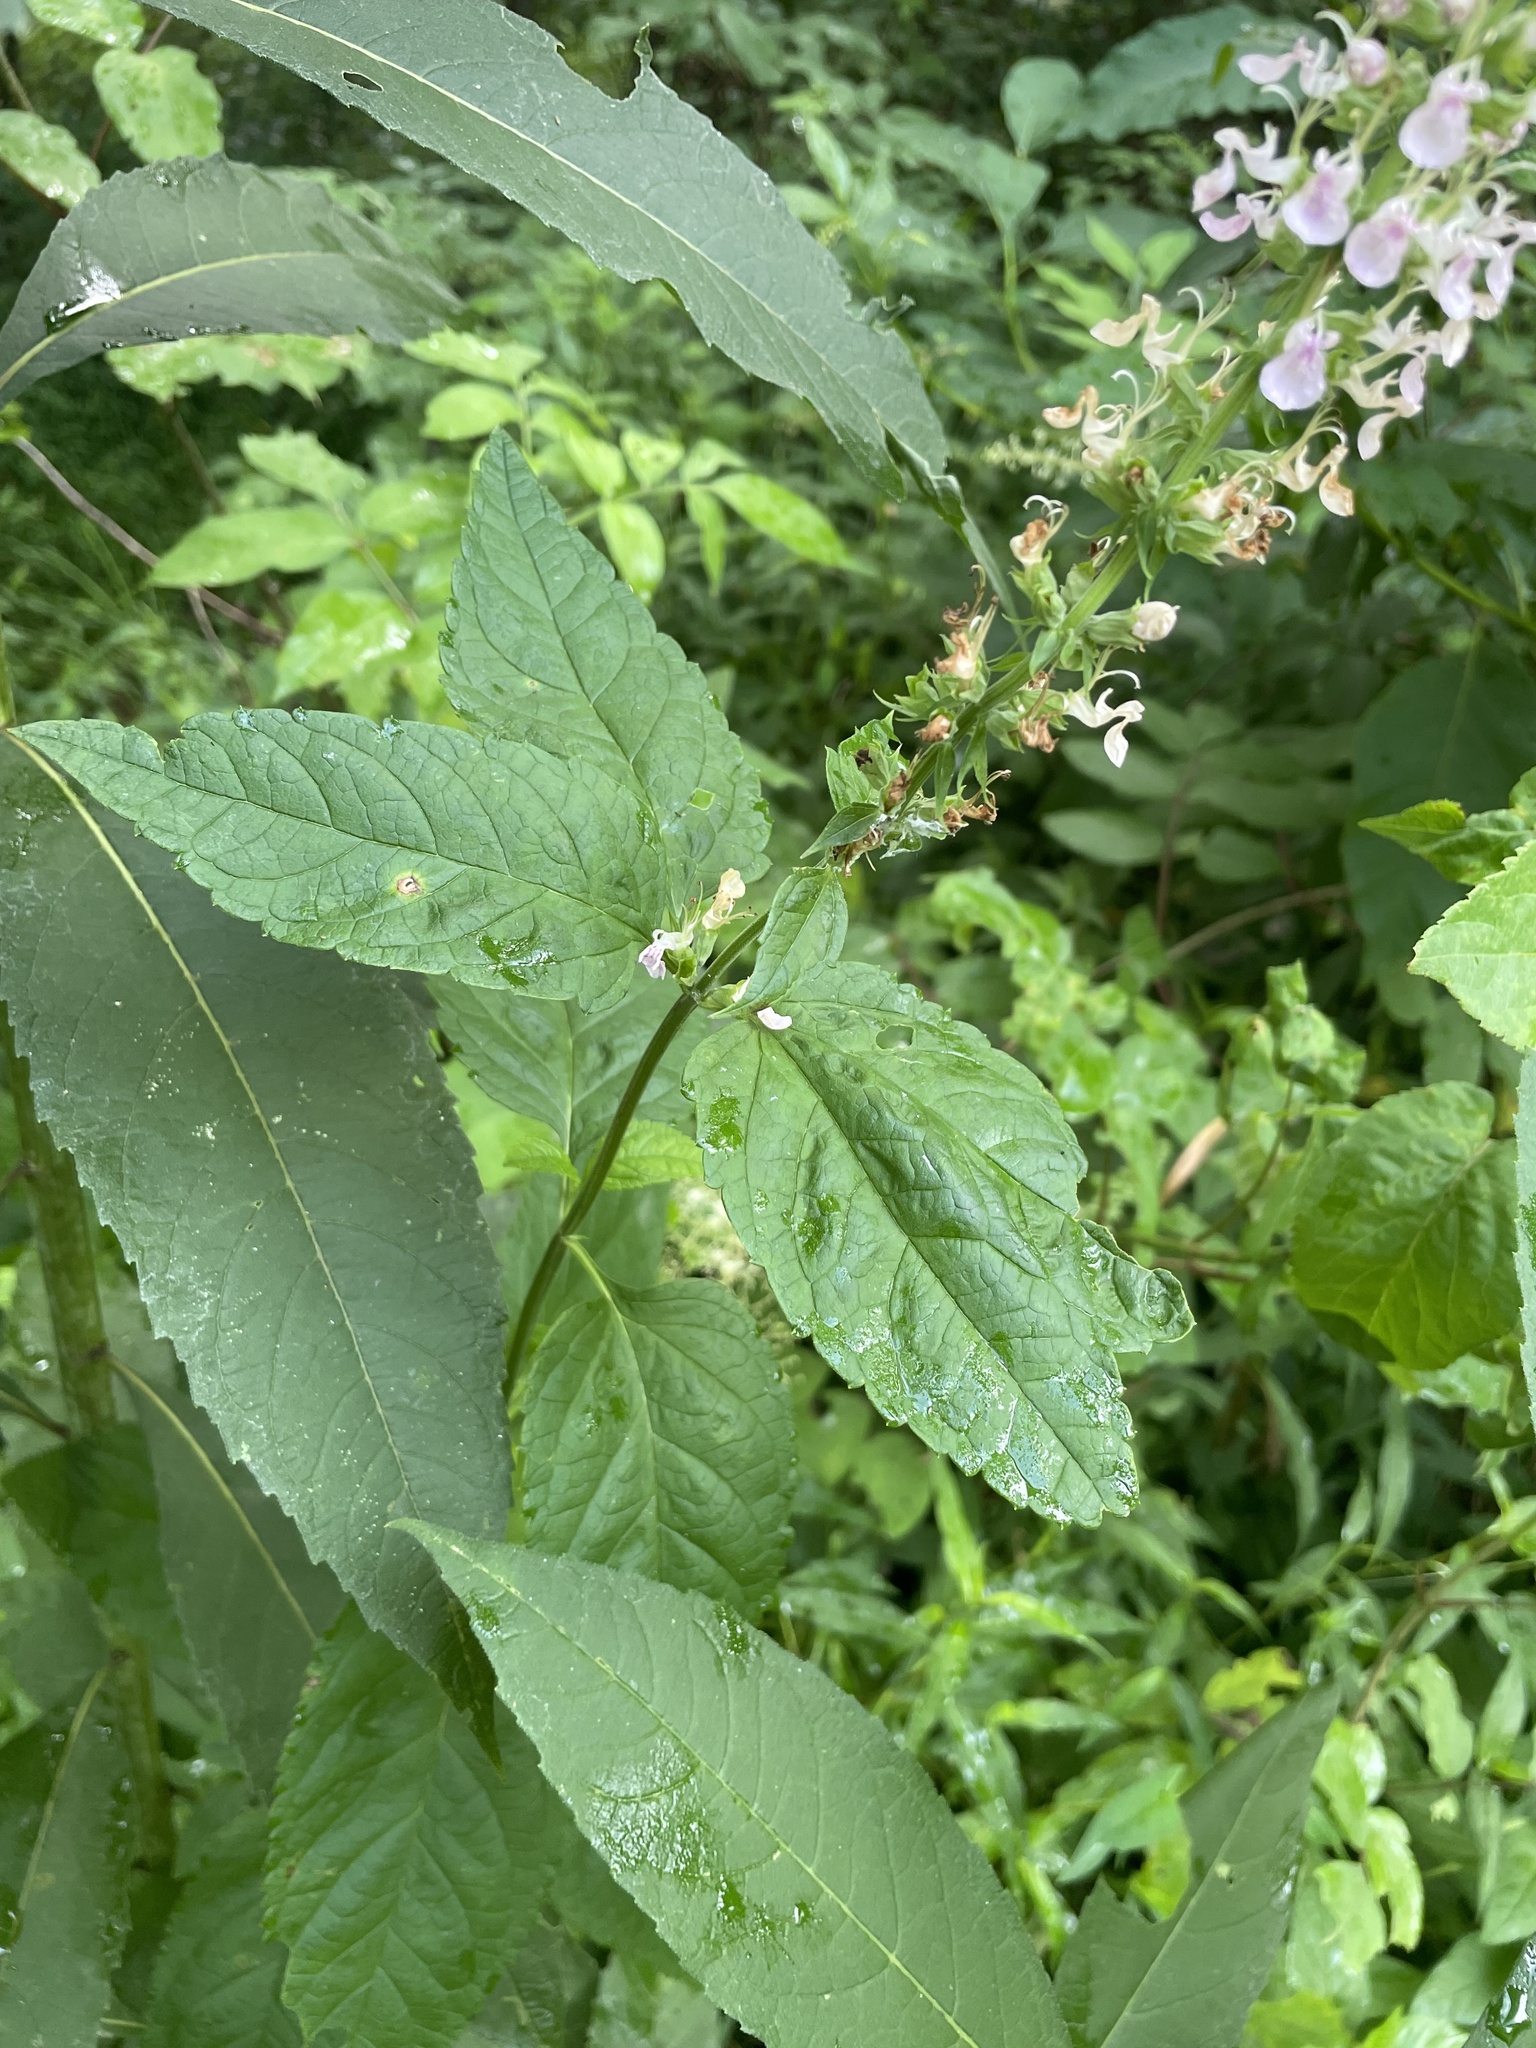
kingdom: Plantae
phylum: Tracheophyta
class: Magnoliopsida
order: Lamiales
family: Lamiaceae
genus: Teucrium
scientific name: Teucrium canadense
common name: American germander
